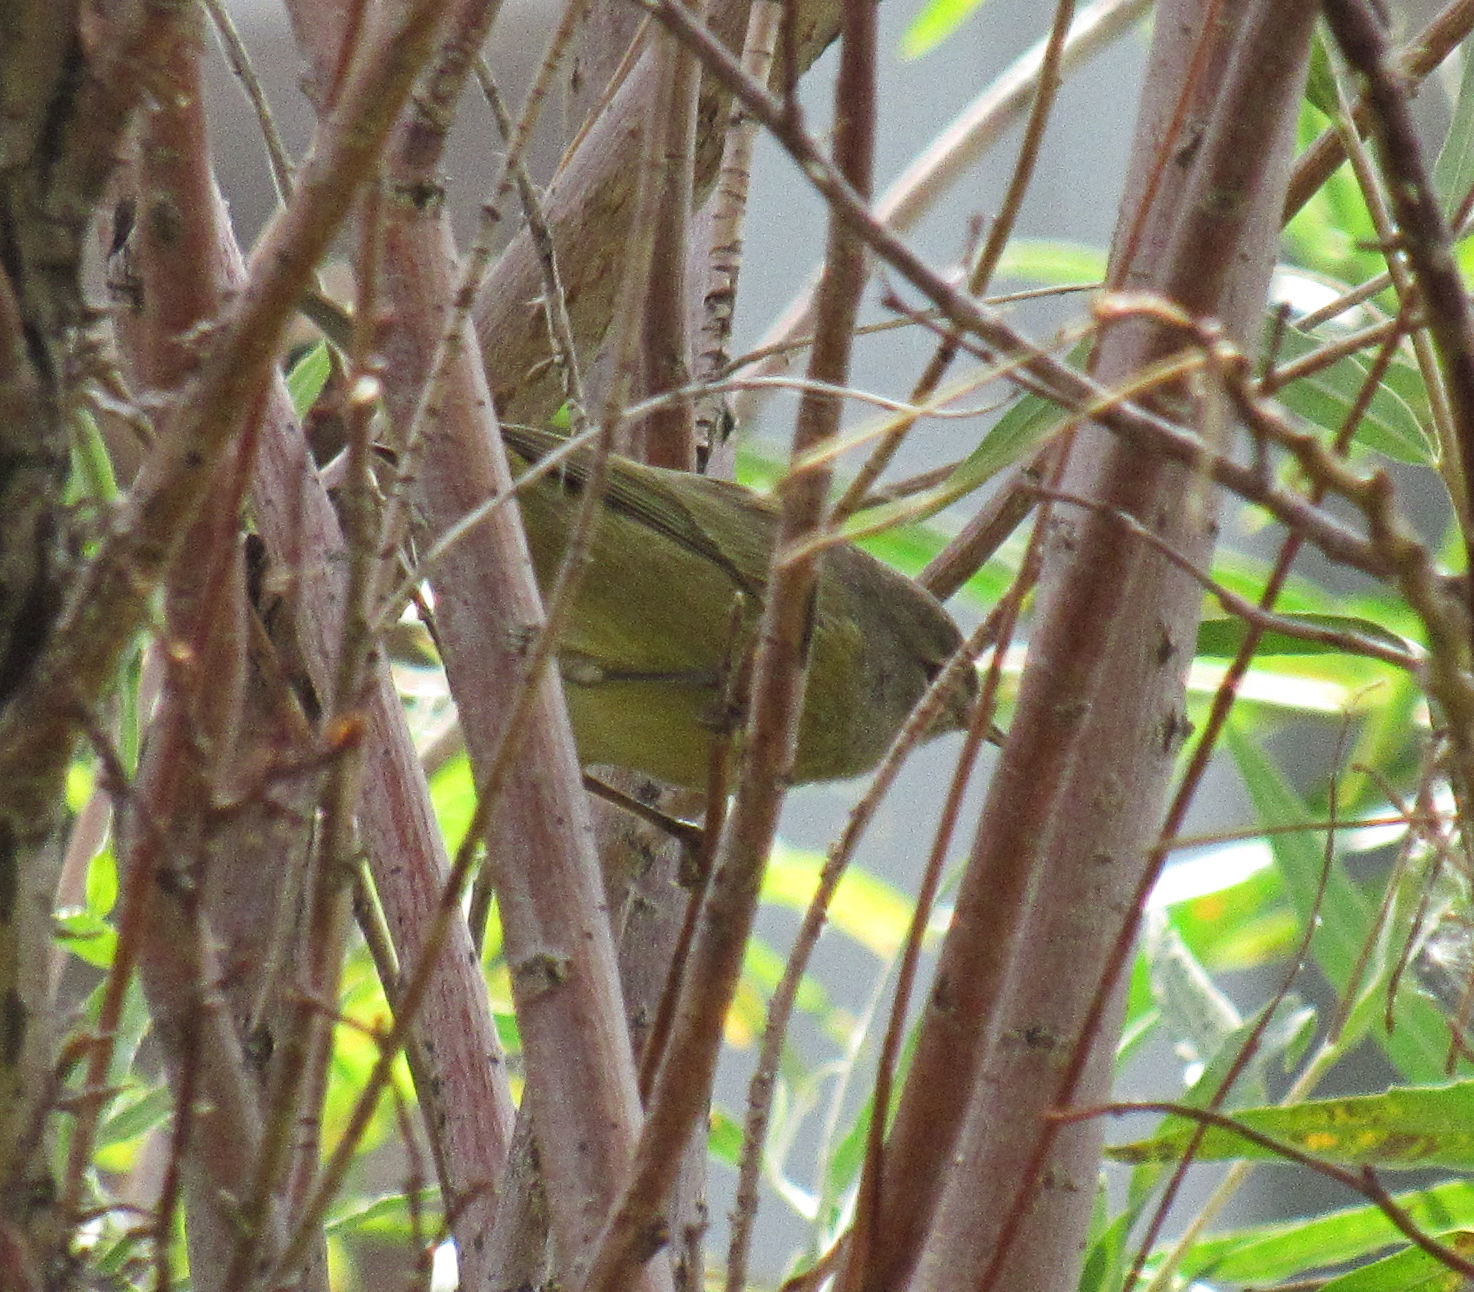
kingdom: Animalia
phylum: Chordata
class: Aves
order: Passeriformes
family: Parulidae
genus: Leiothlypis
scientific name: Leiothlypis celata
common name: Orange-crowned warbler
